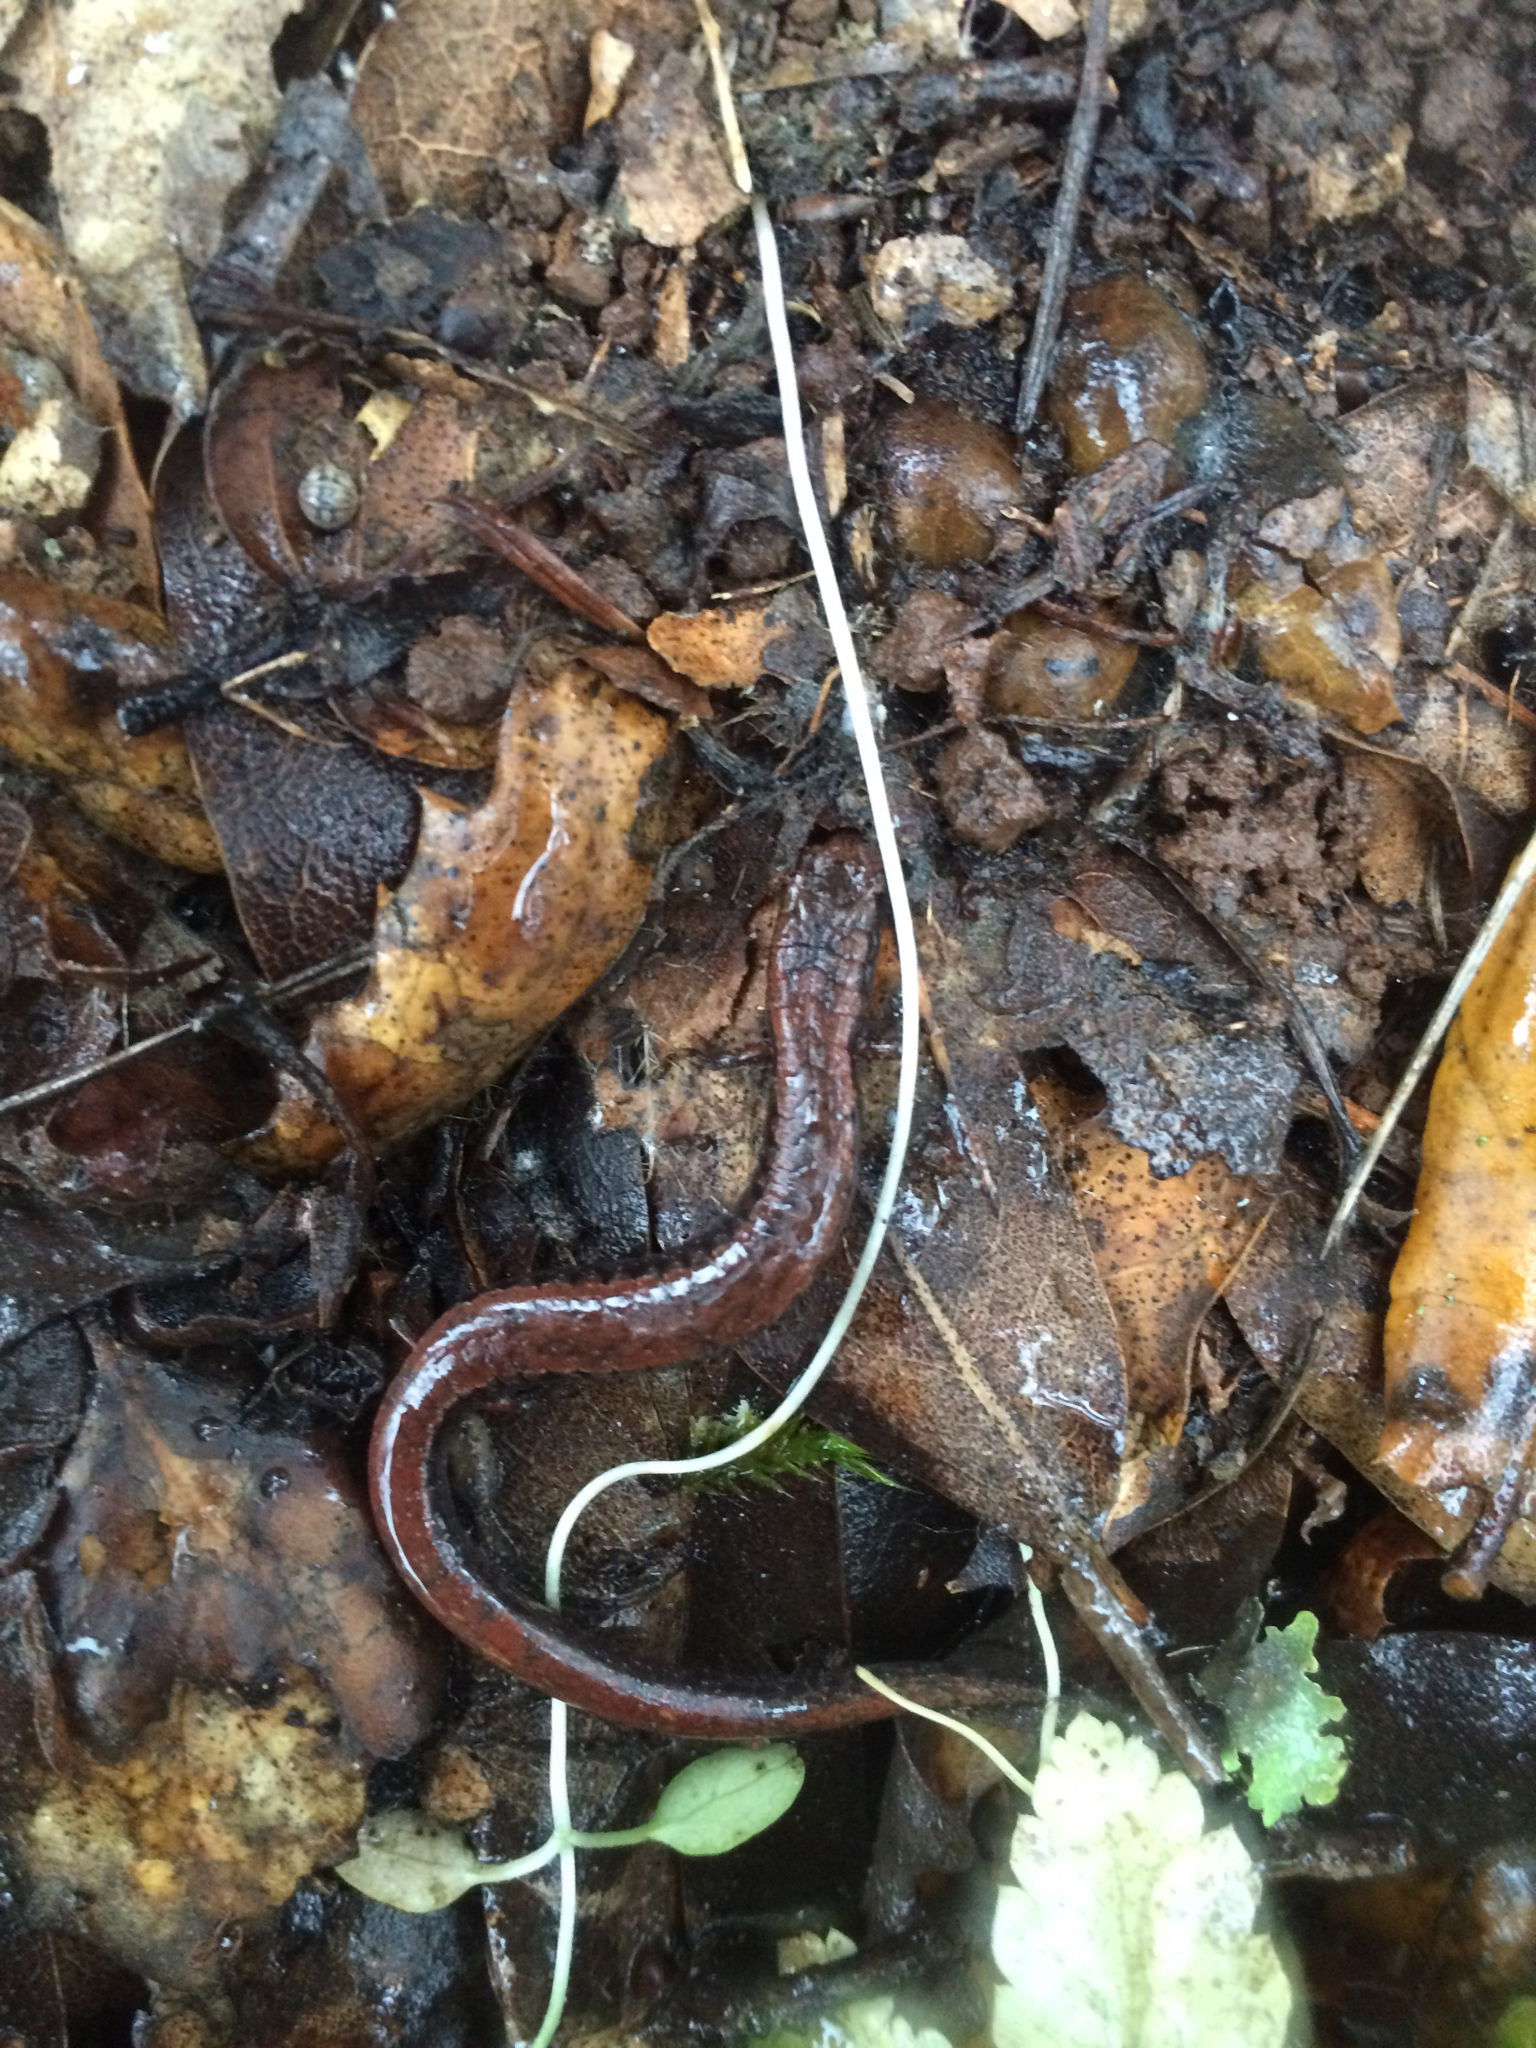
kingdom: Animalia
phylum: Chordata
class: Amphibia
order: Caudata
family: Plethodontidae
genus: Batrachoseps
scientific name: Batrachoseps attenuatus
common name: California slender salamander
